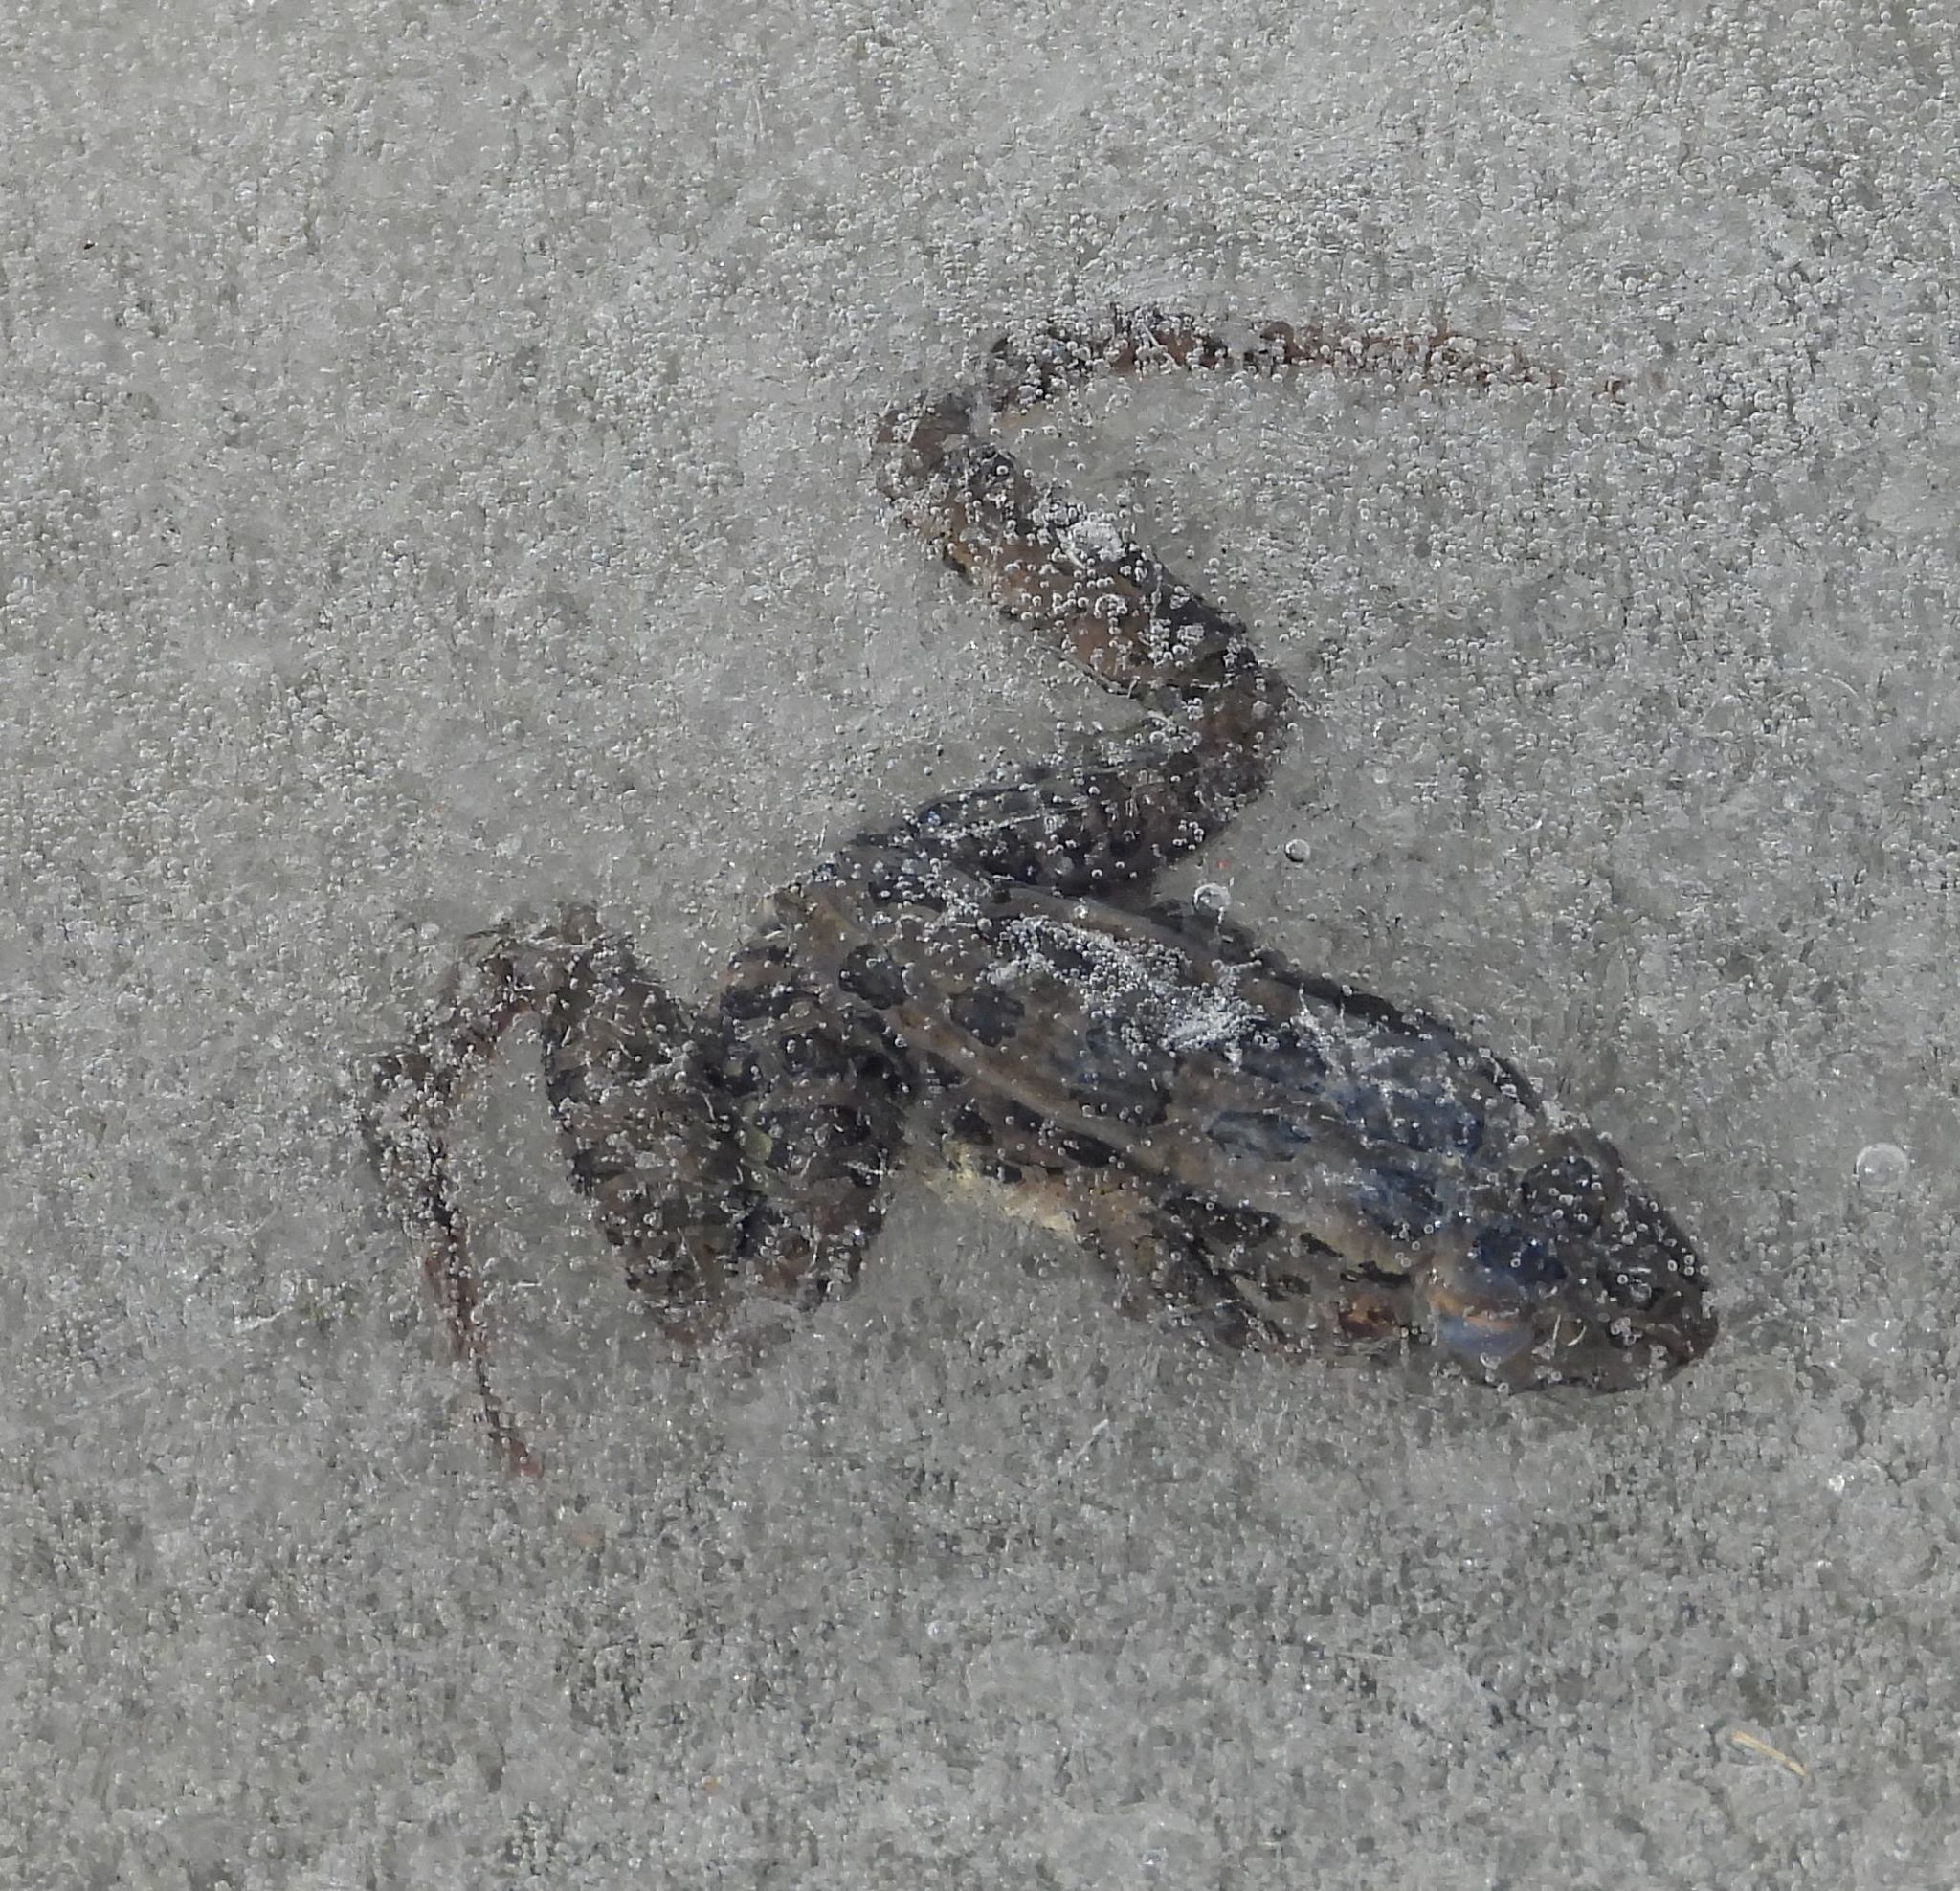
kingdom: Animalia
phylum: Chordata
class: Amphibia
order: Anura
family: Ranidae
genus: Lithobates
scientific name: Lithobates pipiens
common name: Northern leopard frog
